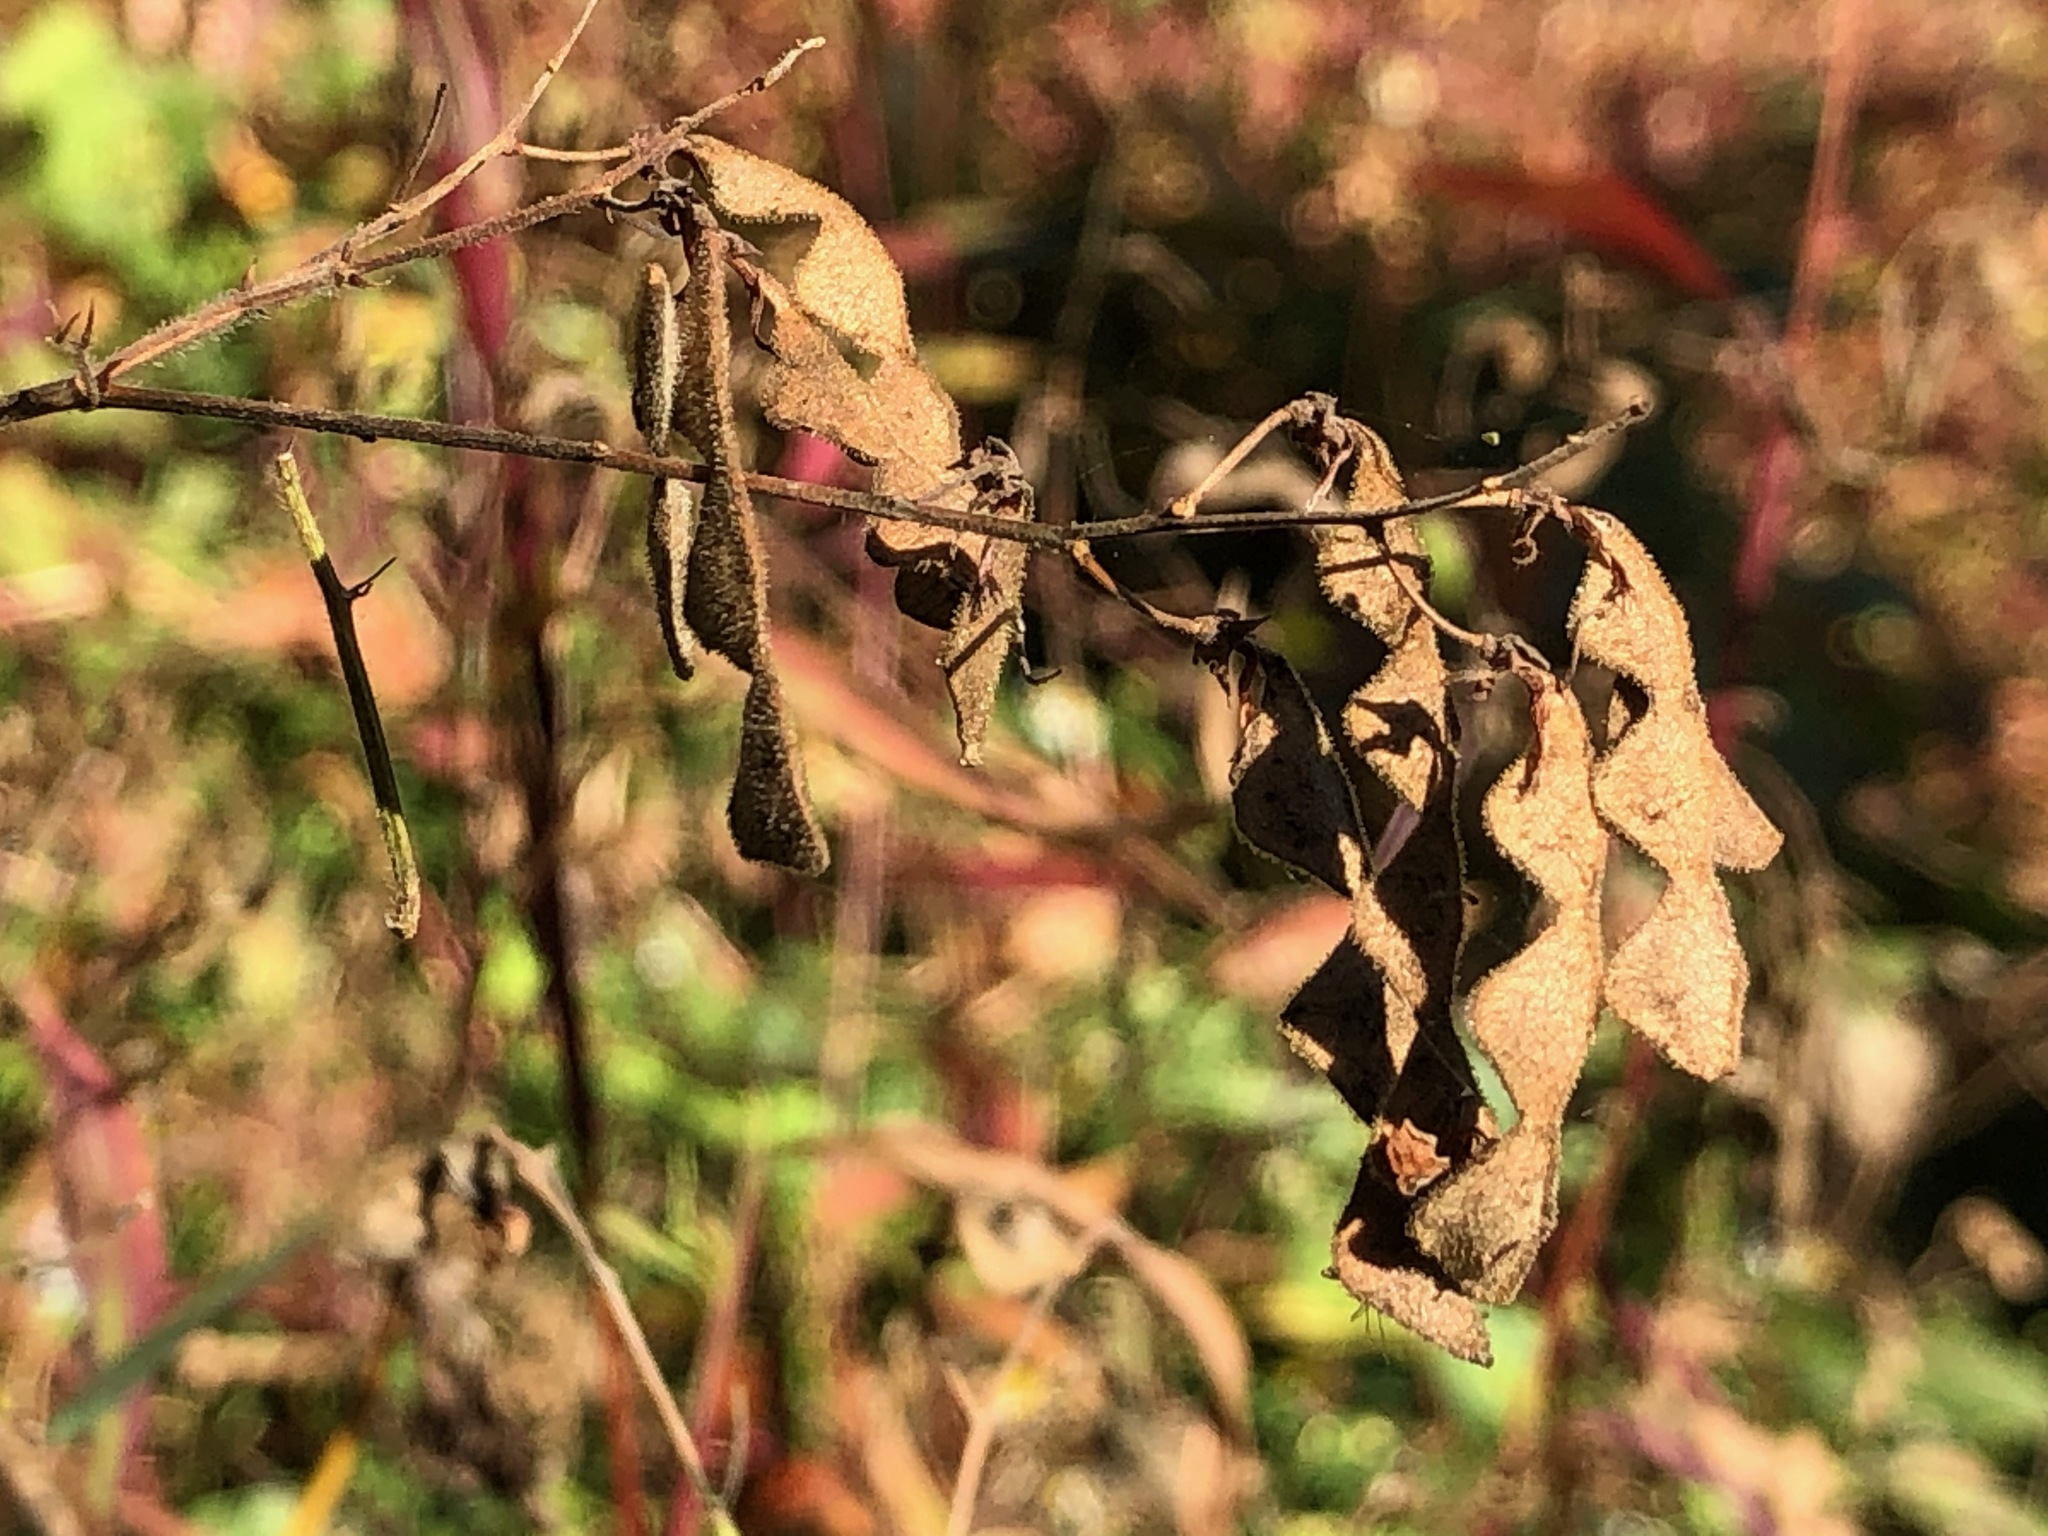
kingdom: Plantae
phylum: Tracheophyta
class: Magnoliopsida
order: Fabales
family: Fabaceae
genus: Desmodium
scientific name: Desmodium
